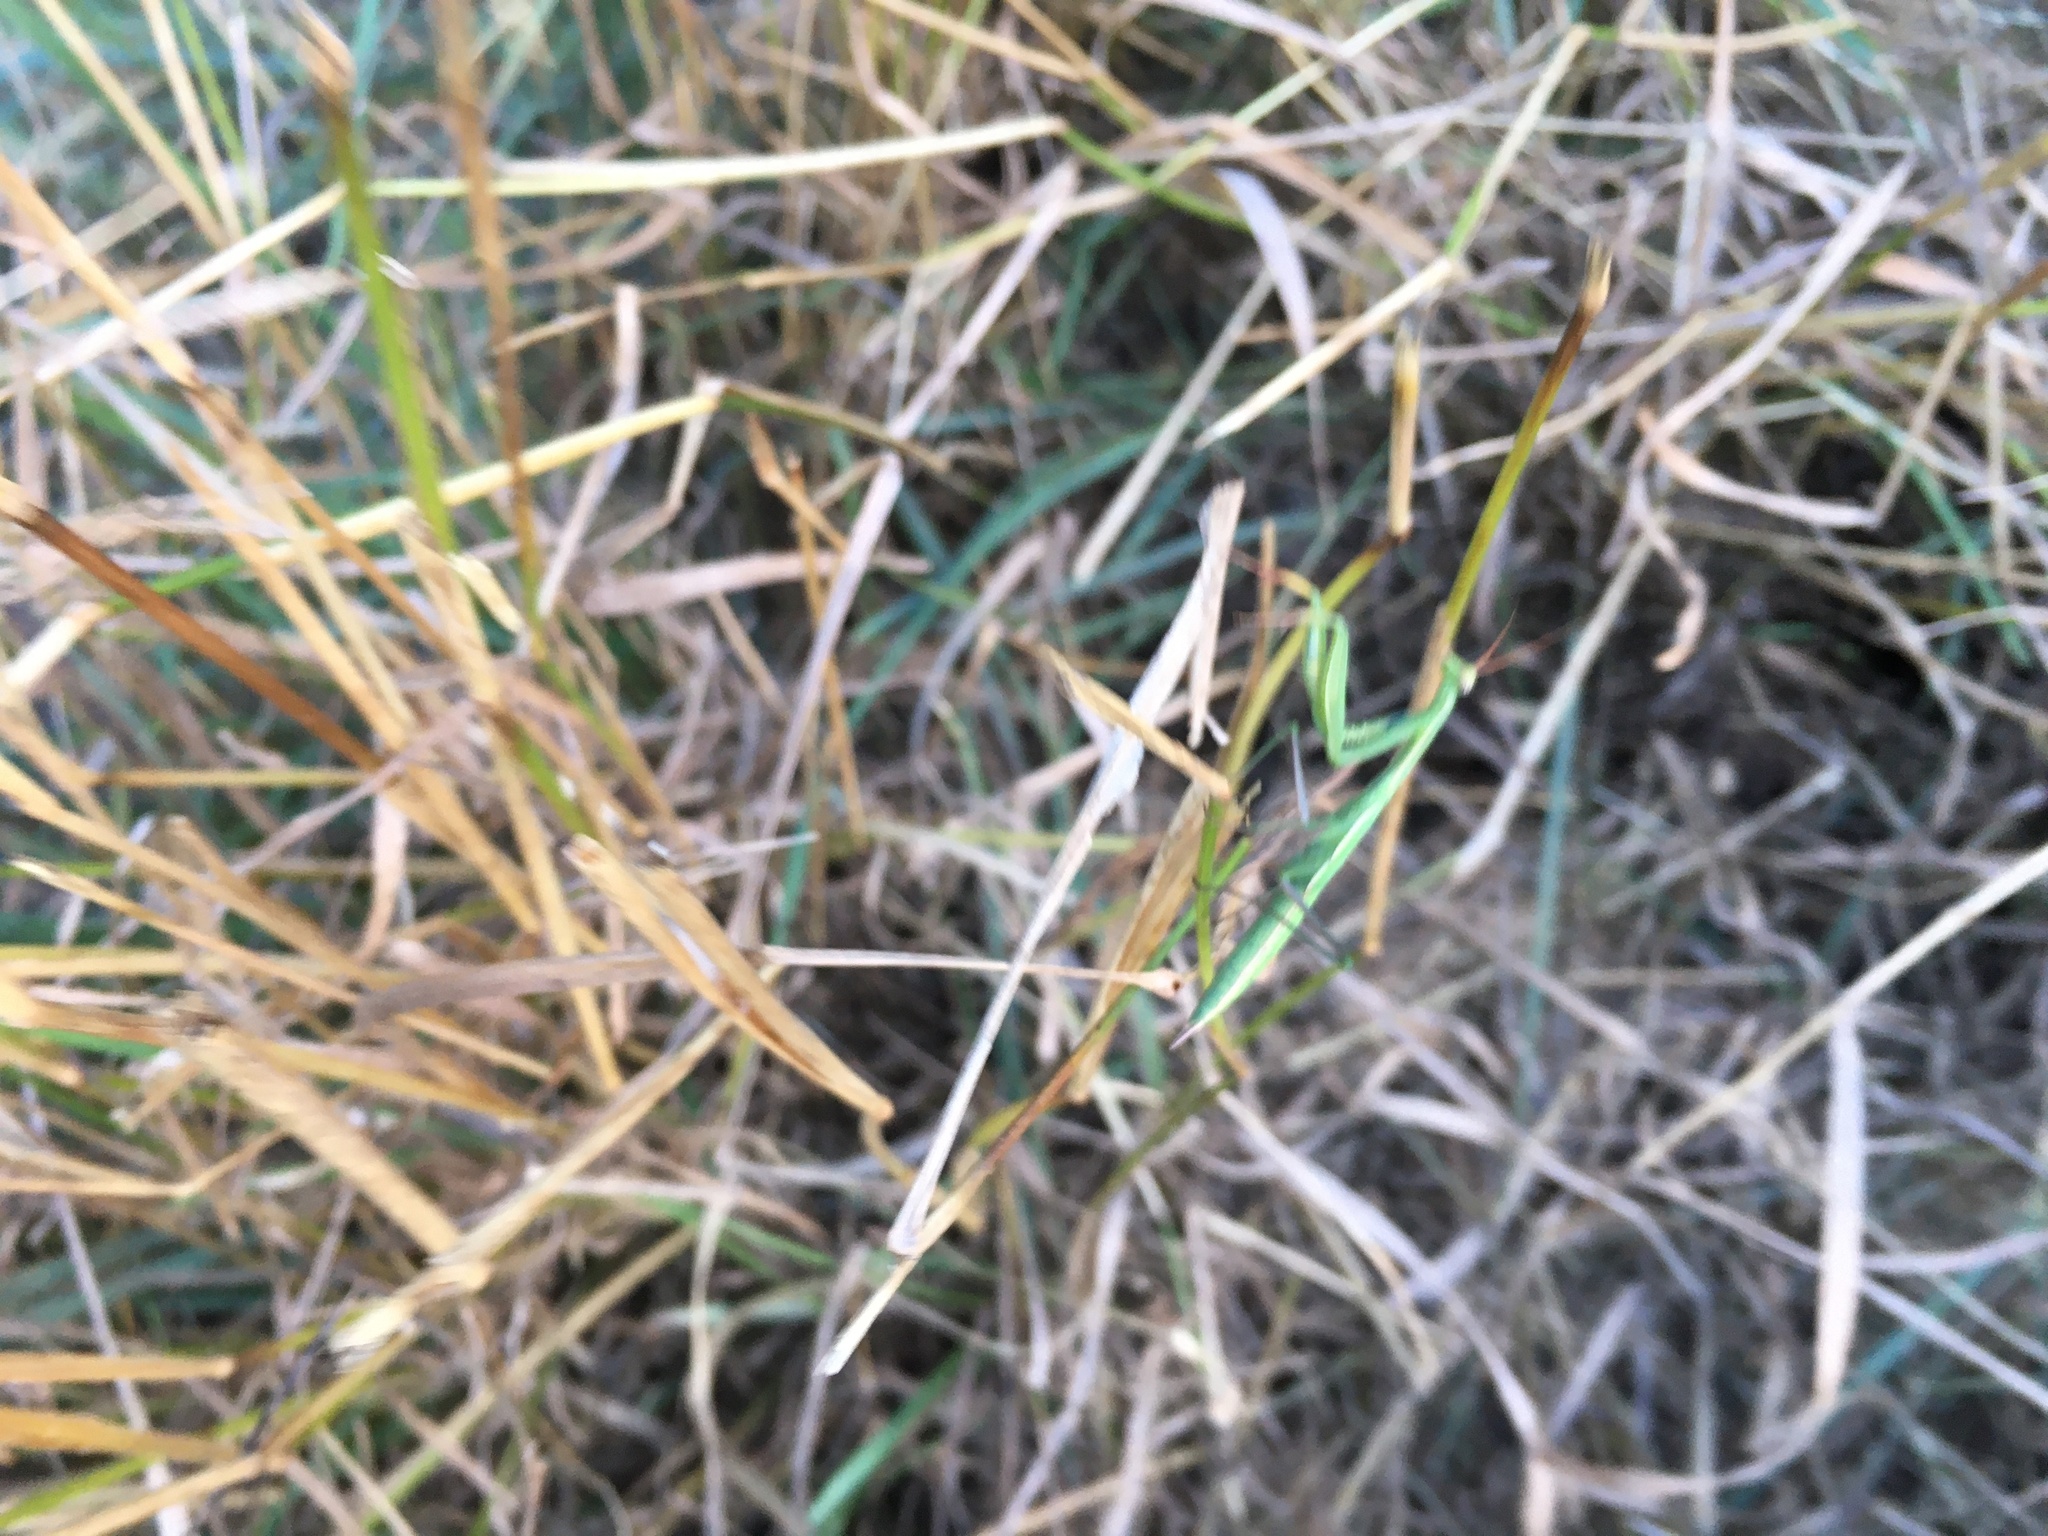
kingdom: Animalia
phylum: Arthropoda
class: Insecta
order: Mantodea
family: Mantidae
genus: Mantis
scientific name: Mantis religiosa
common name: Praying mantis
